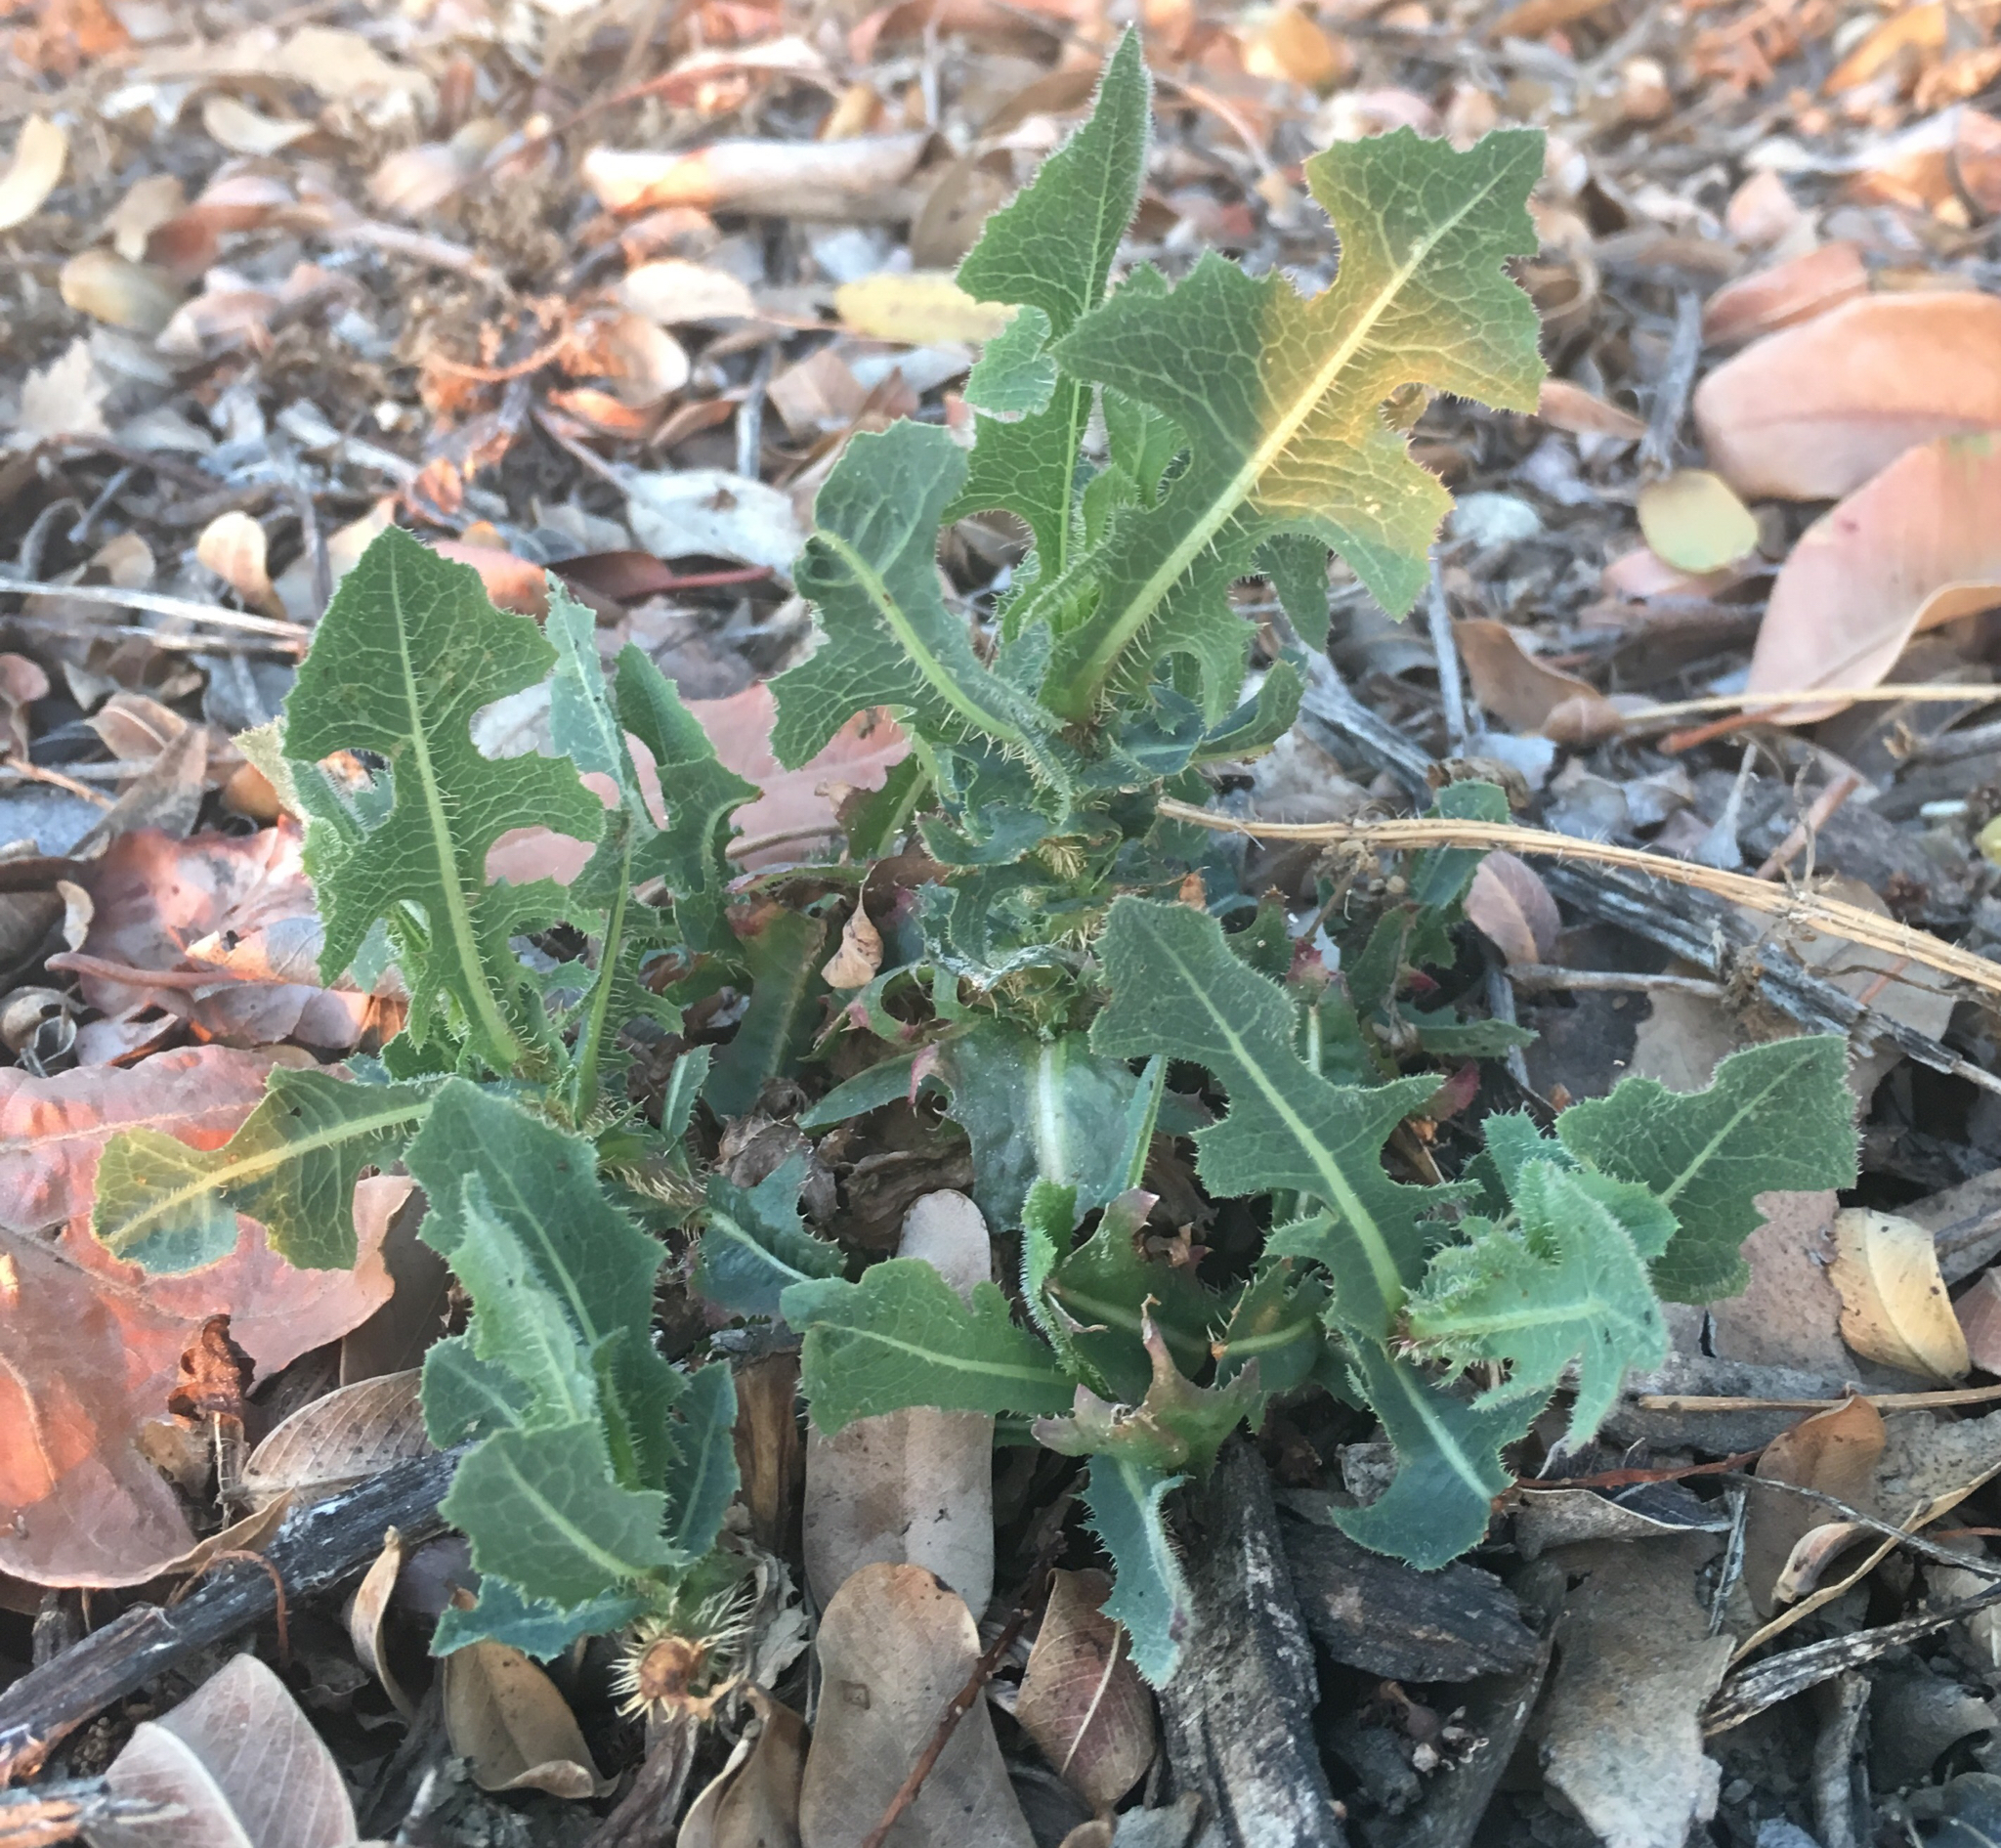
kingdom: Plantae
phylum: Tracheophyta
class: Magnoliopsida
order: Asterales
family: Asteraceae
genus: Lactuca
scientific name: Lactuca serriola
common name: Prickly lettuce
